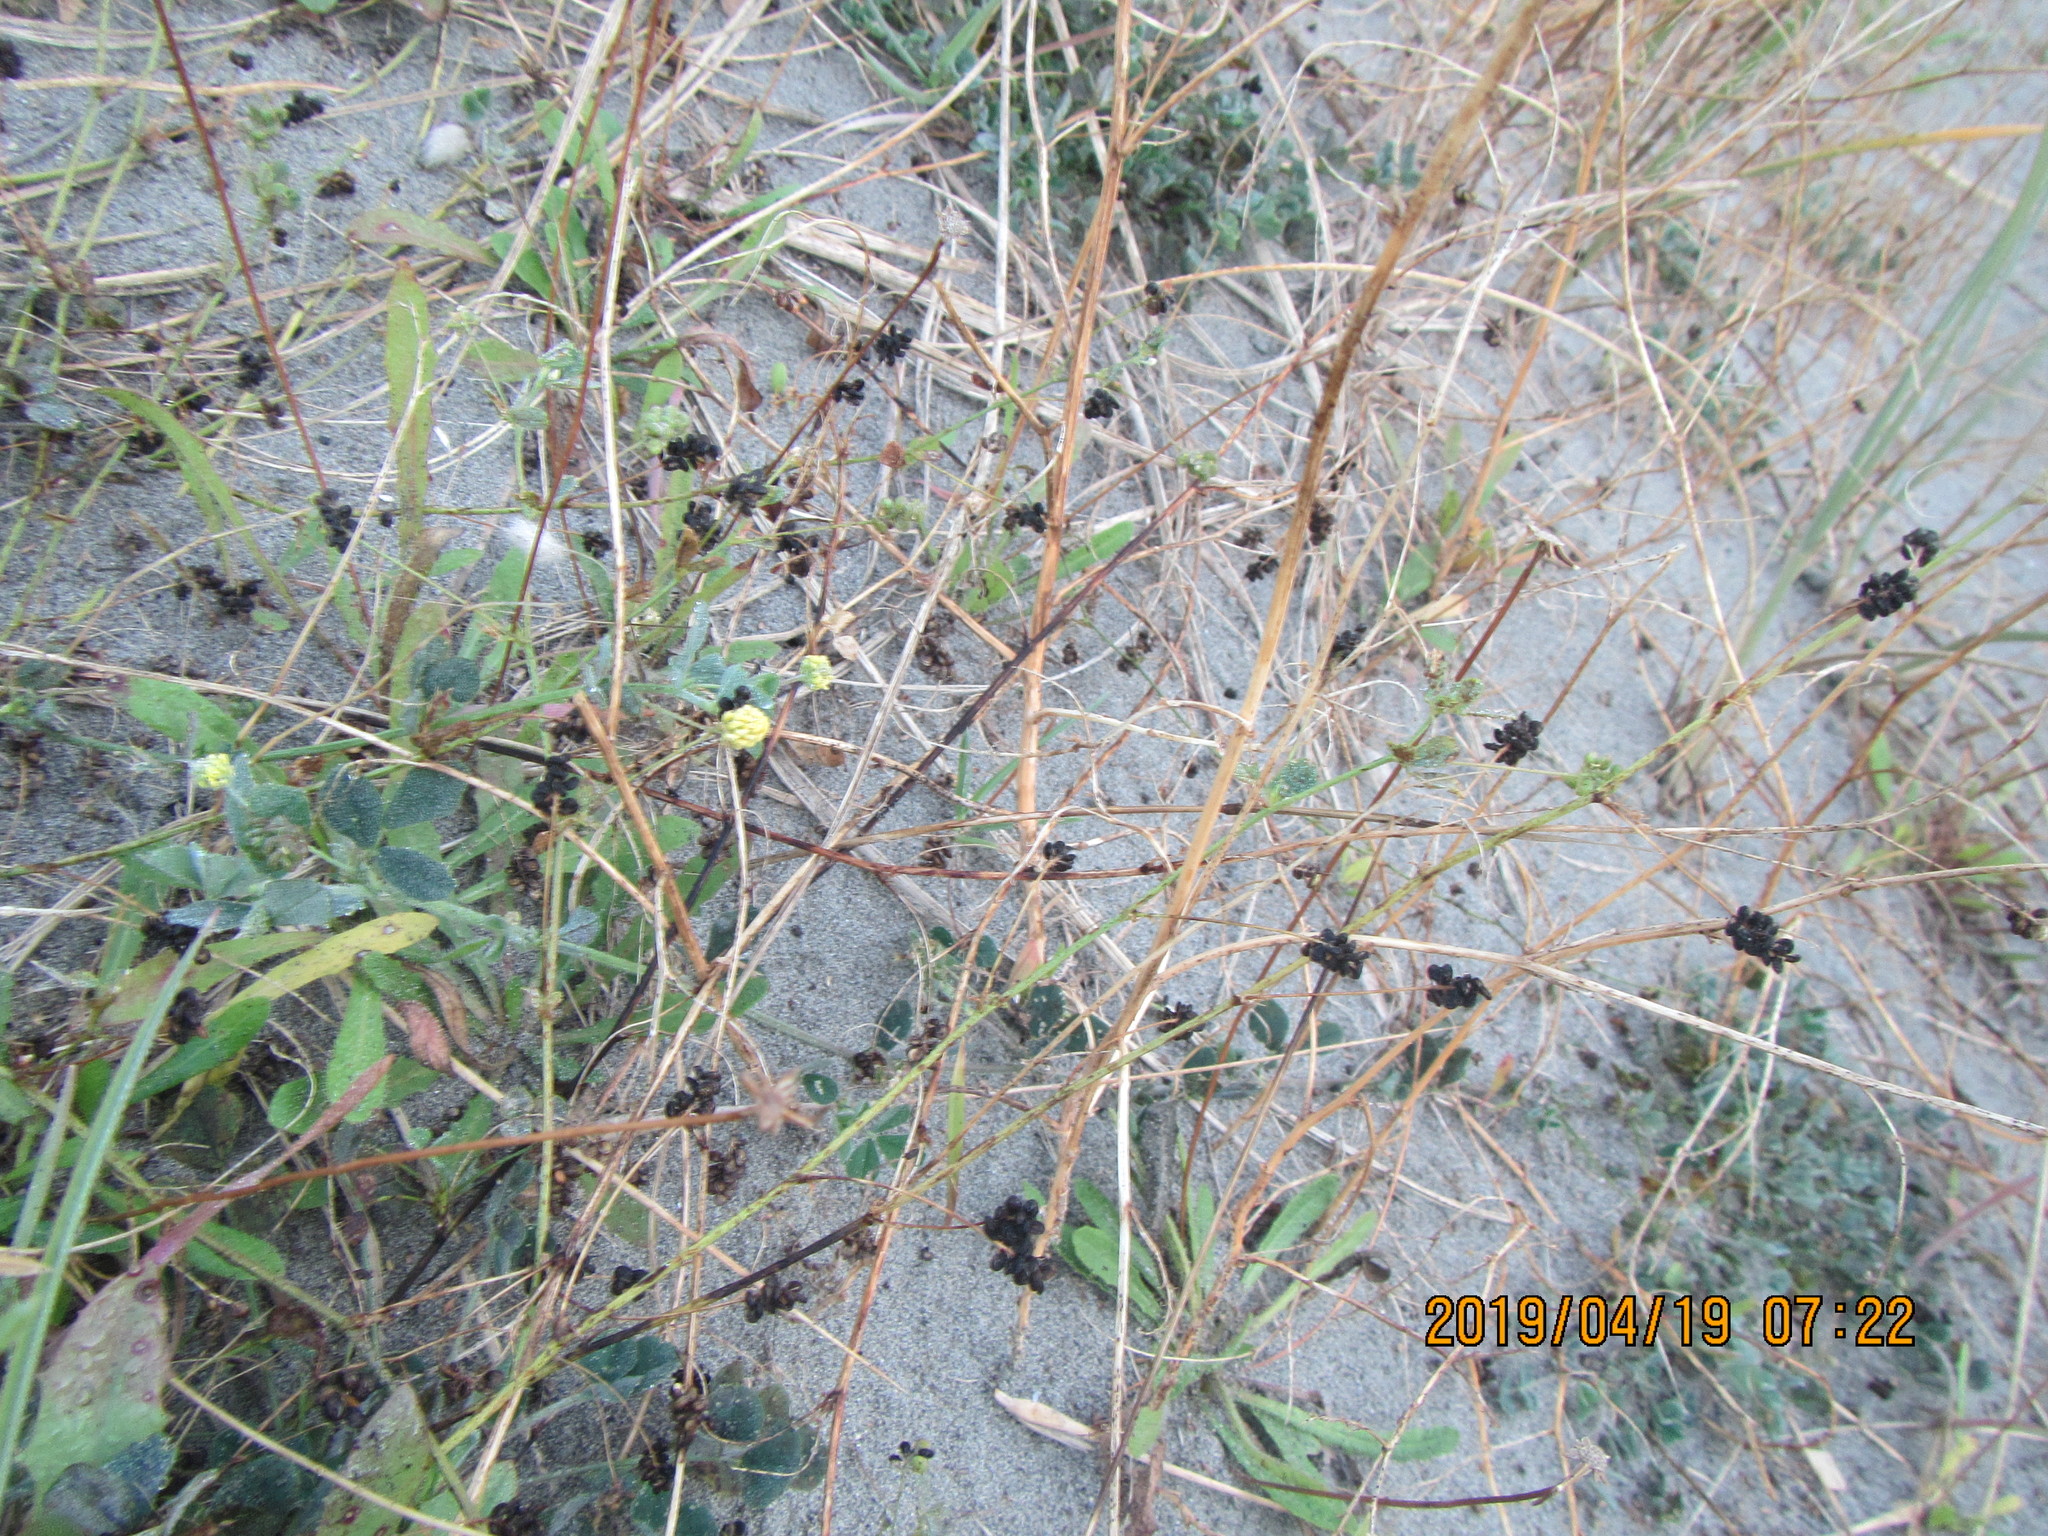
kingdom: Plantae
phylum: Tracheophyta
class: Magnoliopsida
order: Fabales
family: Fabaceae
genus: Melilotus
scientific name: Melilotus indicus
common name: Small melilot
